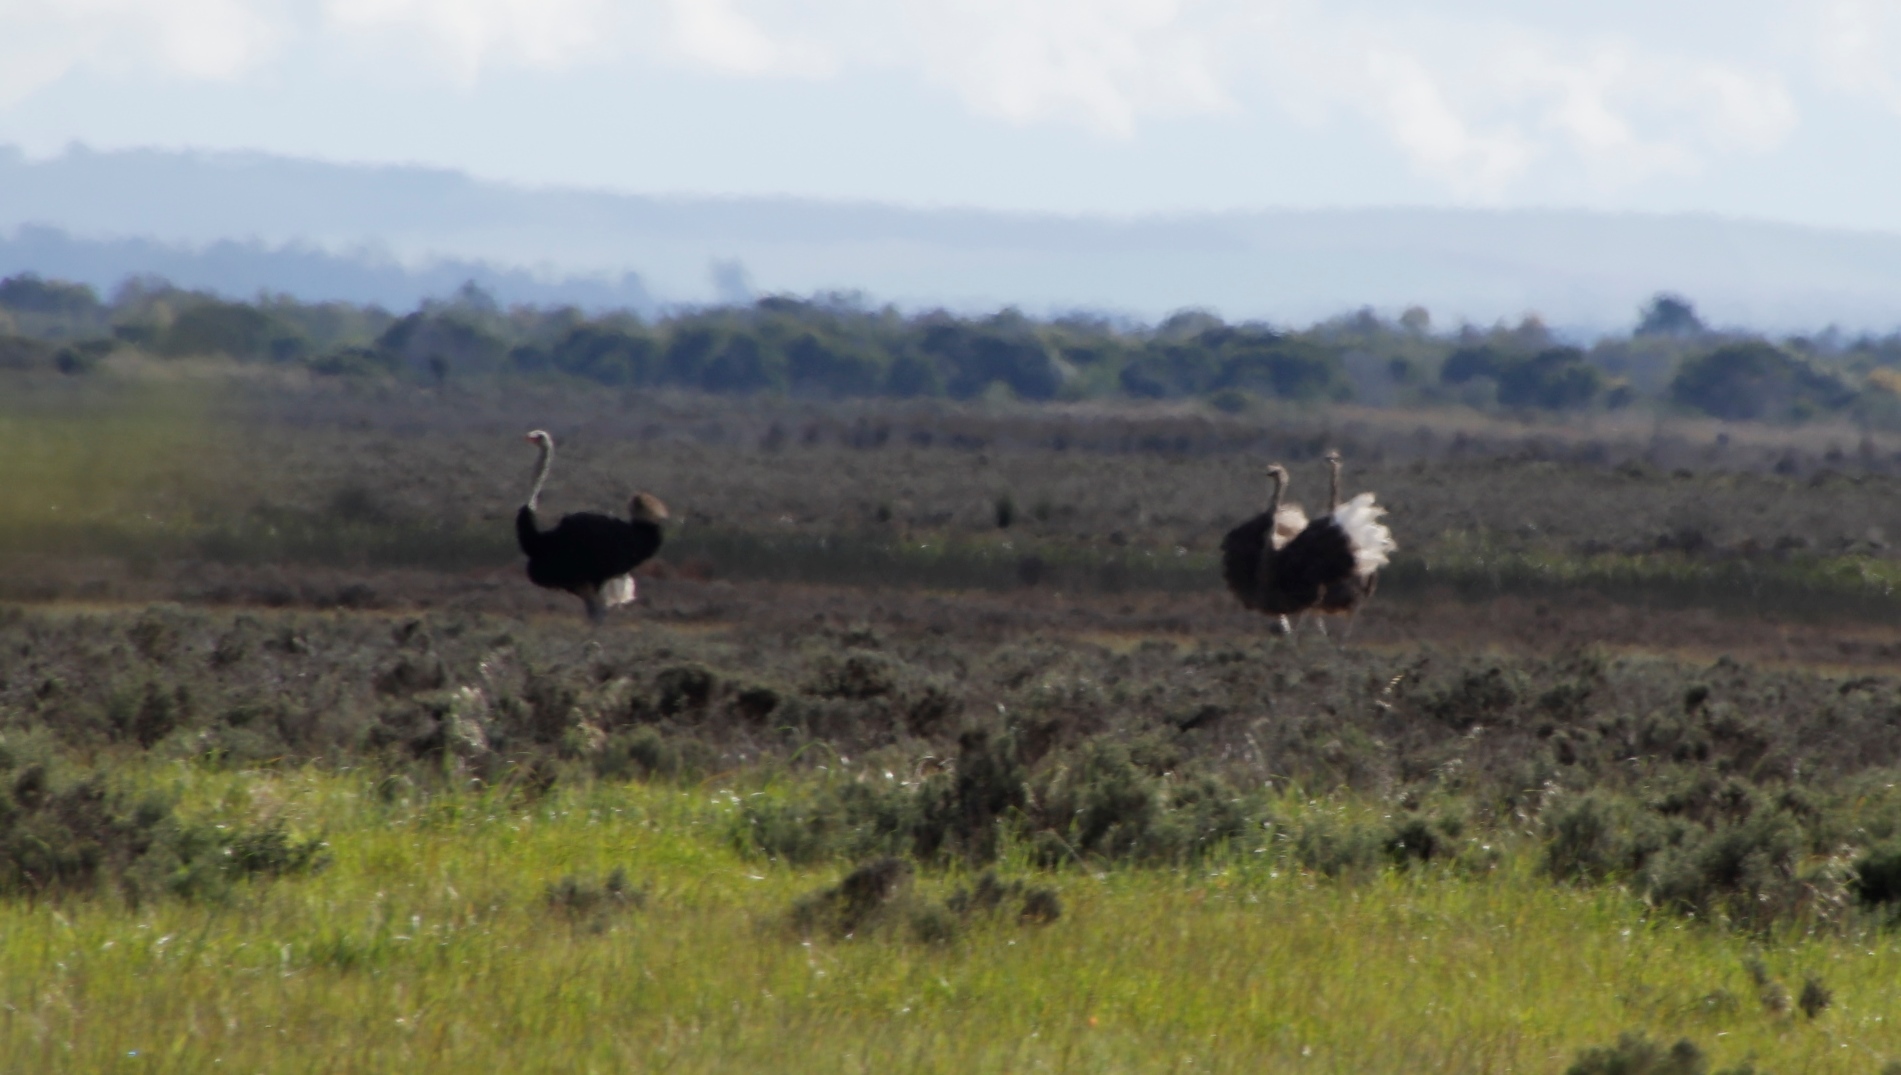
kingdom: Animalia
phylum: Chordata
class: Aves
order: Struthioniformes
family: Struthionidae
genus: Struthio
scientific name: Struthio camelus
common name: Common ostrich
